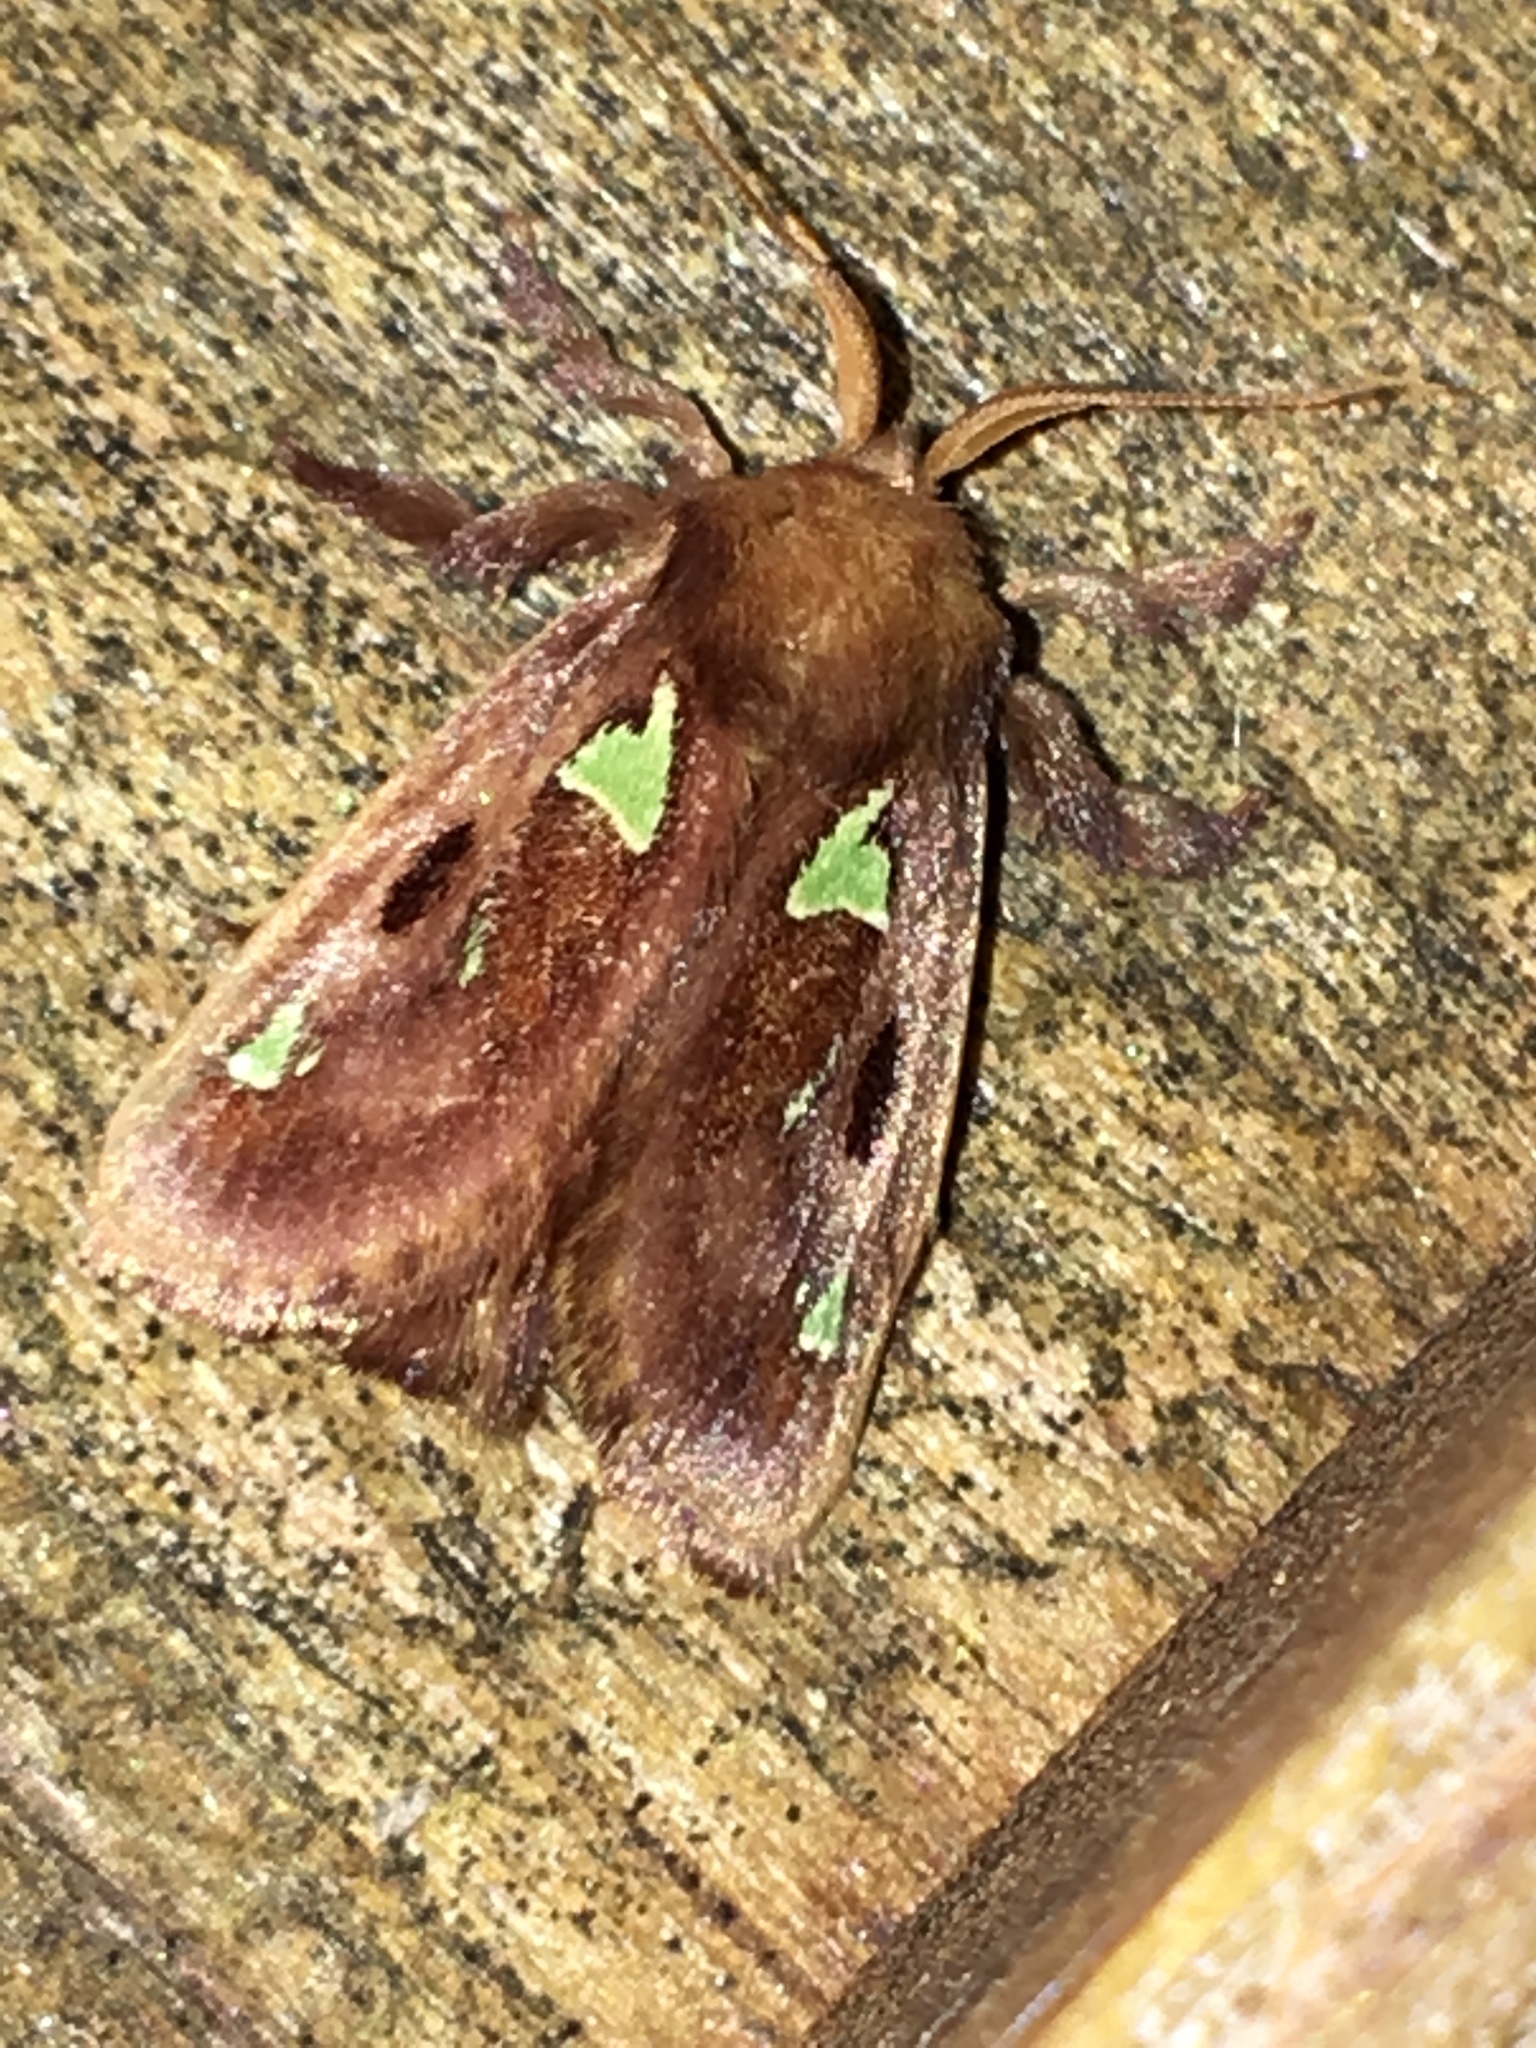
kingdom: Animalia
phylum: Arthropoda
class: Insecta
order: Lepidoptera
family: Limacodidae
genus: Euclea
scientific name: Euclea delphinii
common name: Spiny oak-slug moth
